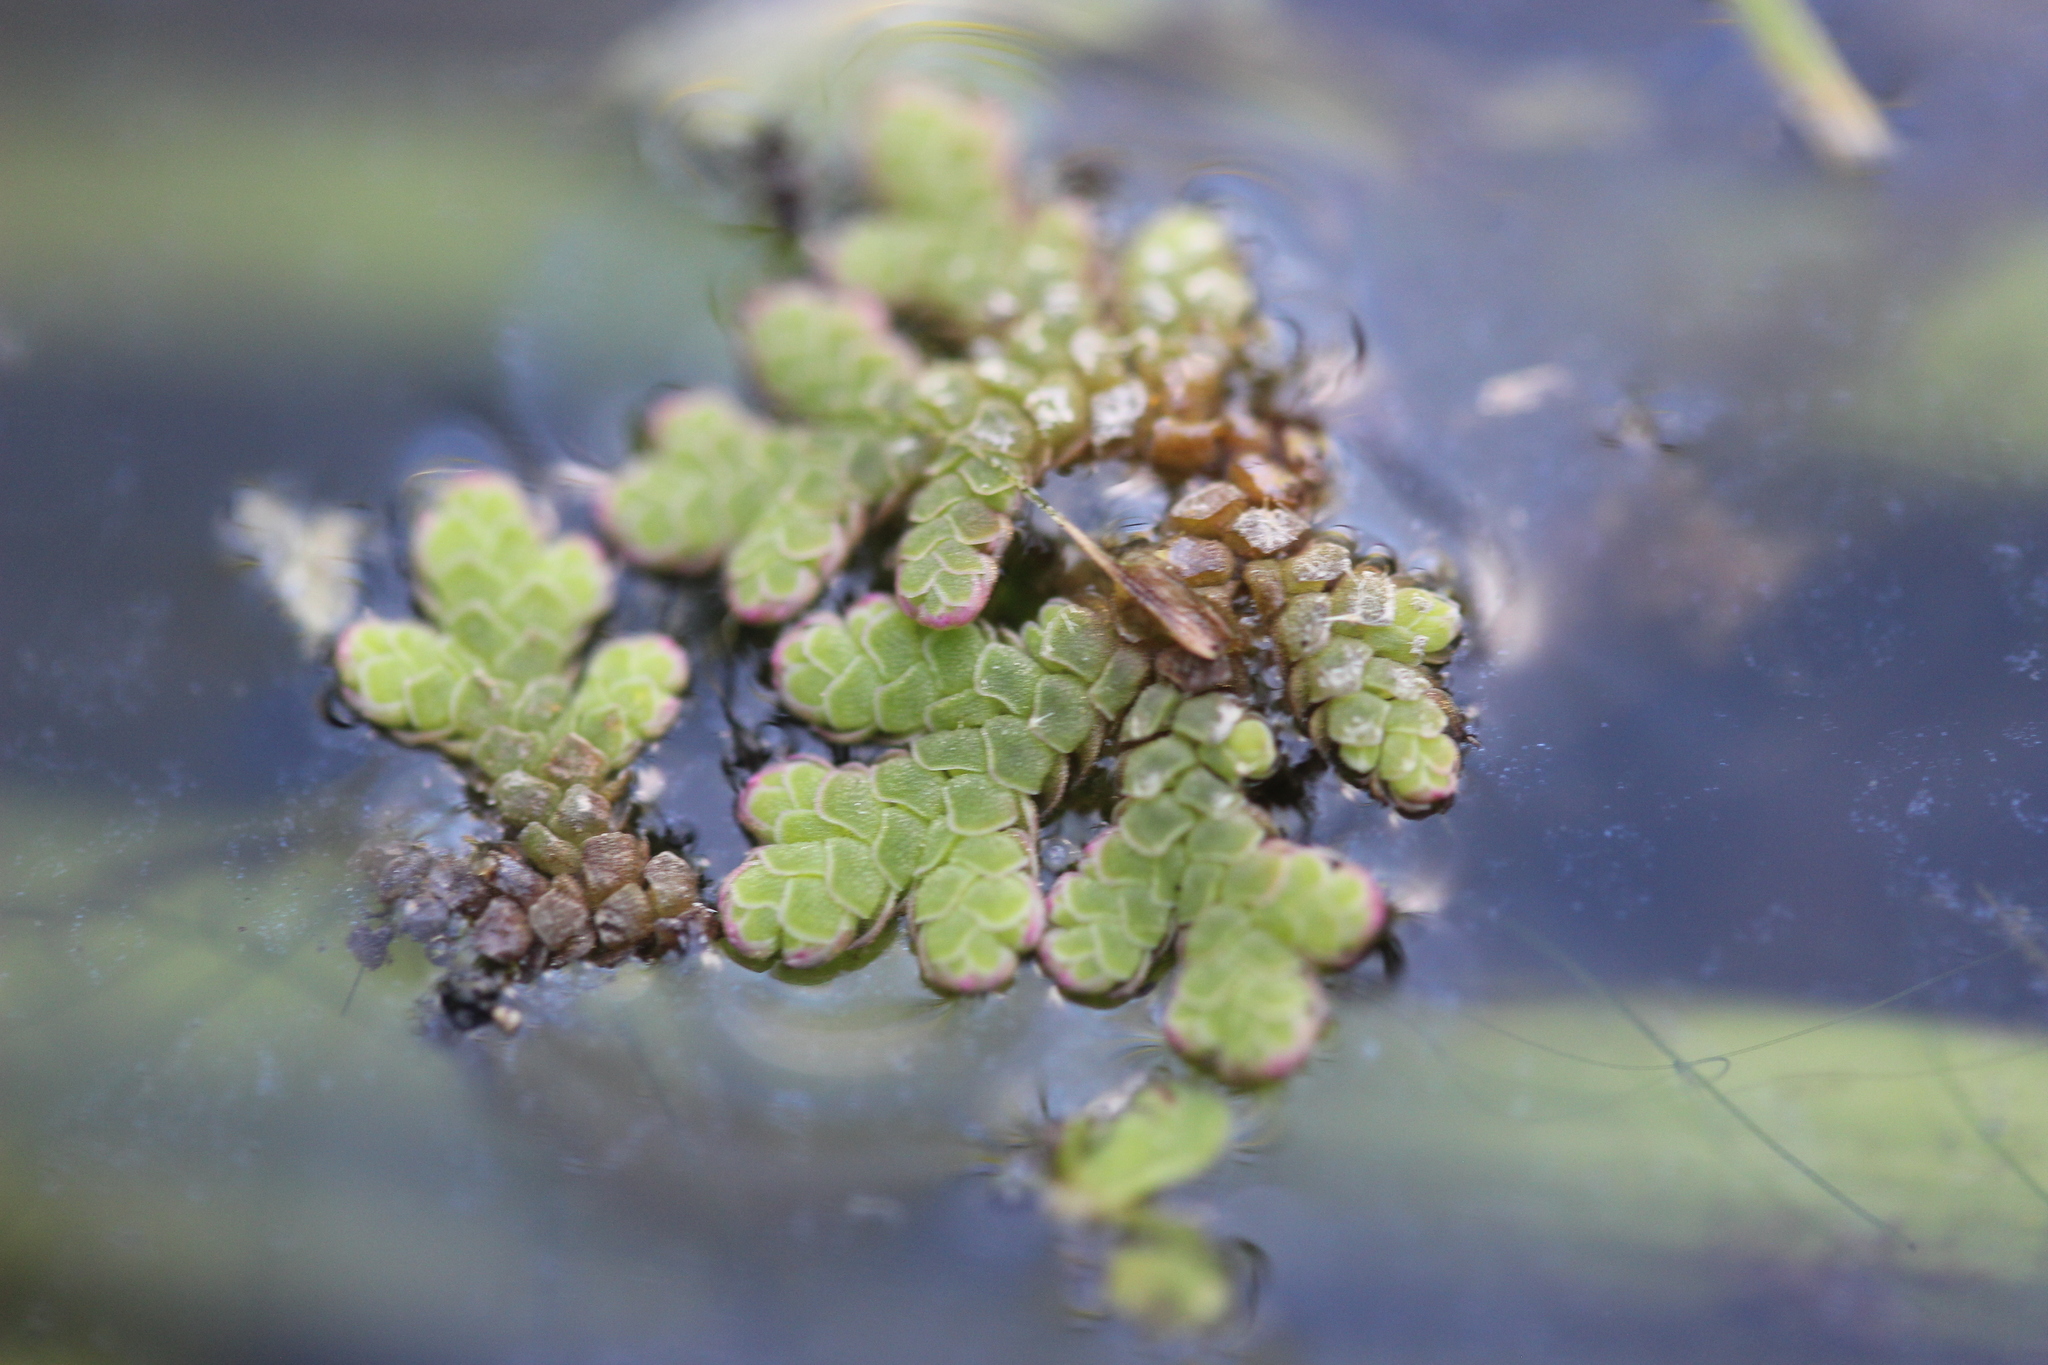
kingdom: Plantae
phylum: Tracheophyta
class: Polypodiopsida
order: Salviniales
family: Salviniaceae
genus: Azolla
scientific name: Azolla rubra
